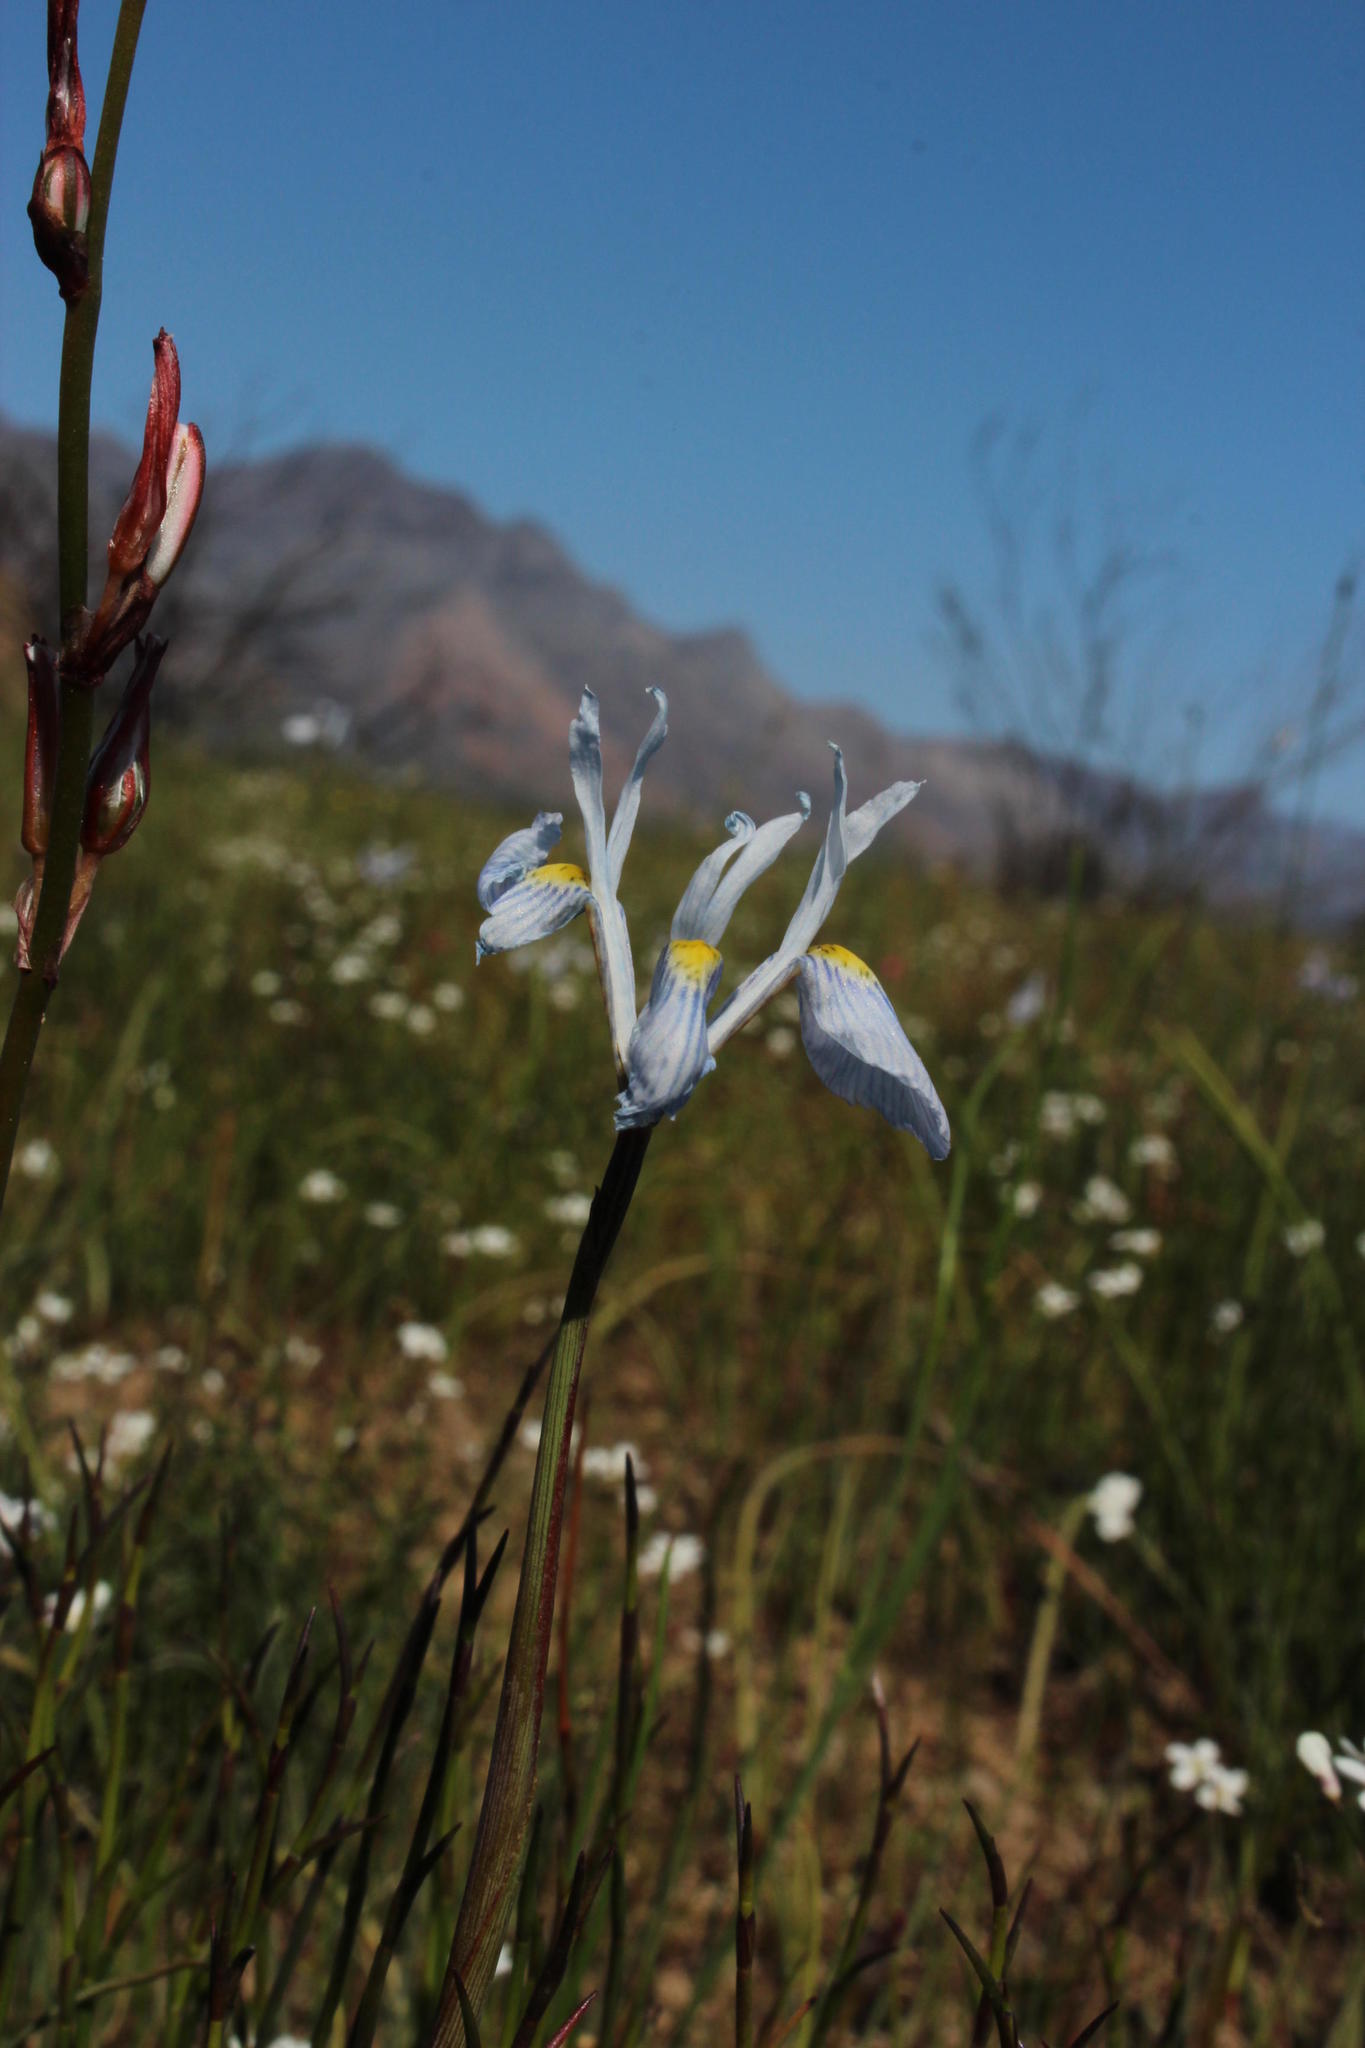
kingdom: Plantae
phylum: Tracheophyta
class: Liliopsida
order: Asparagales
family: Iridaceae
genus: Moraea
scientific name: Moraea tripetala
